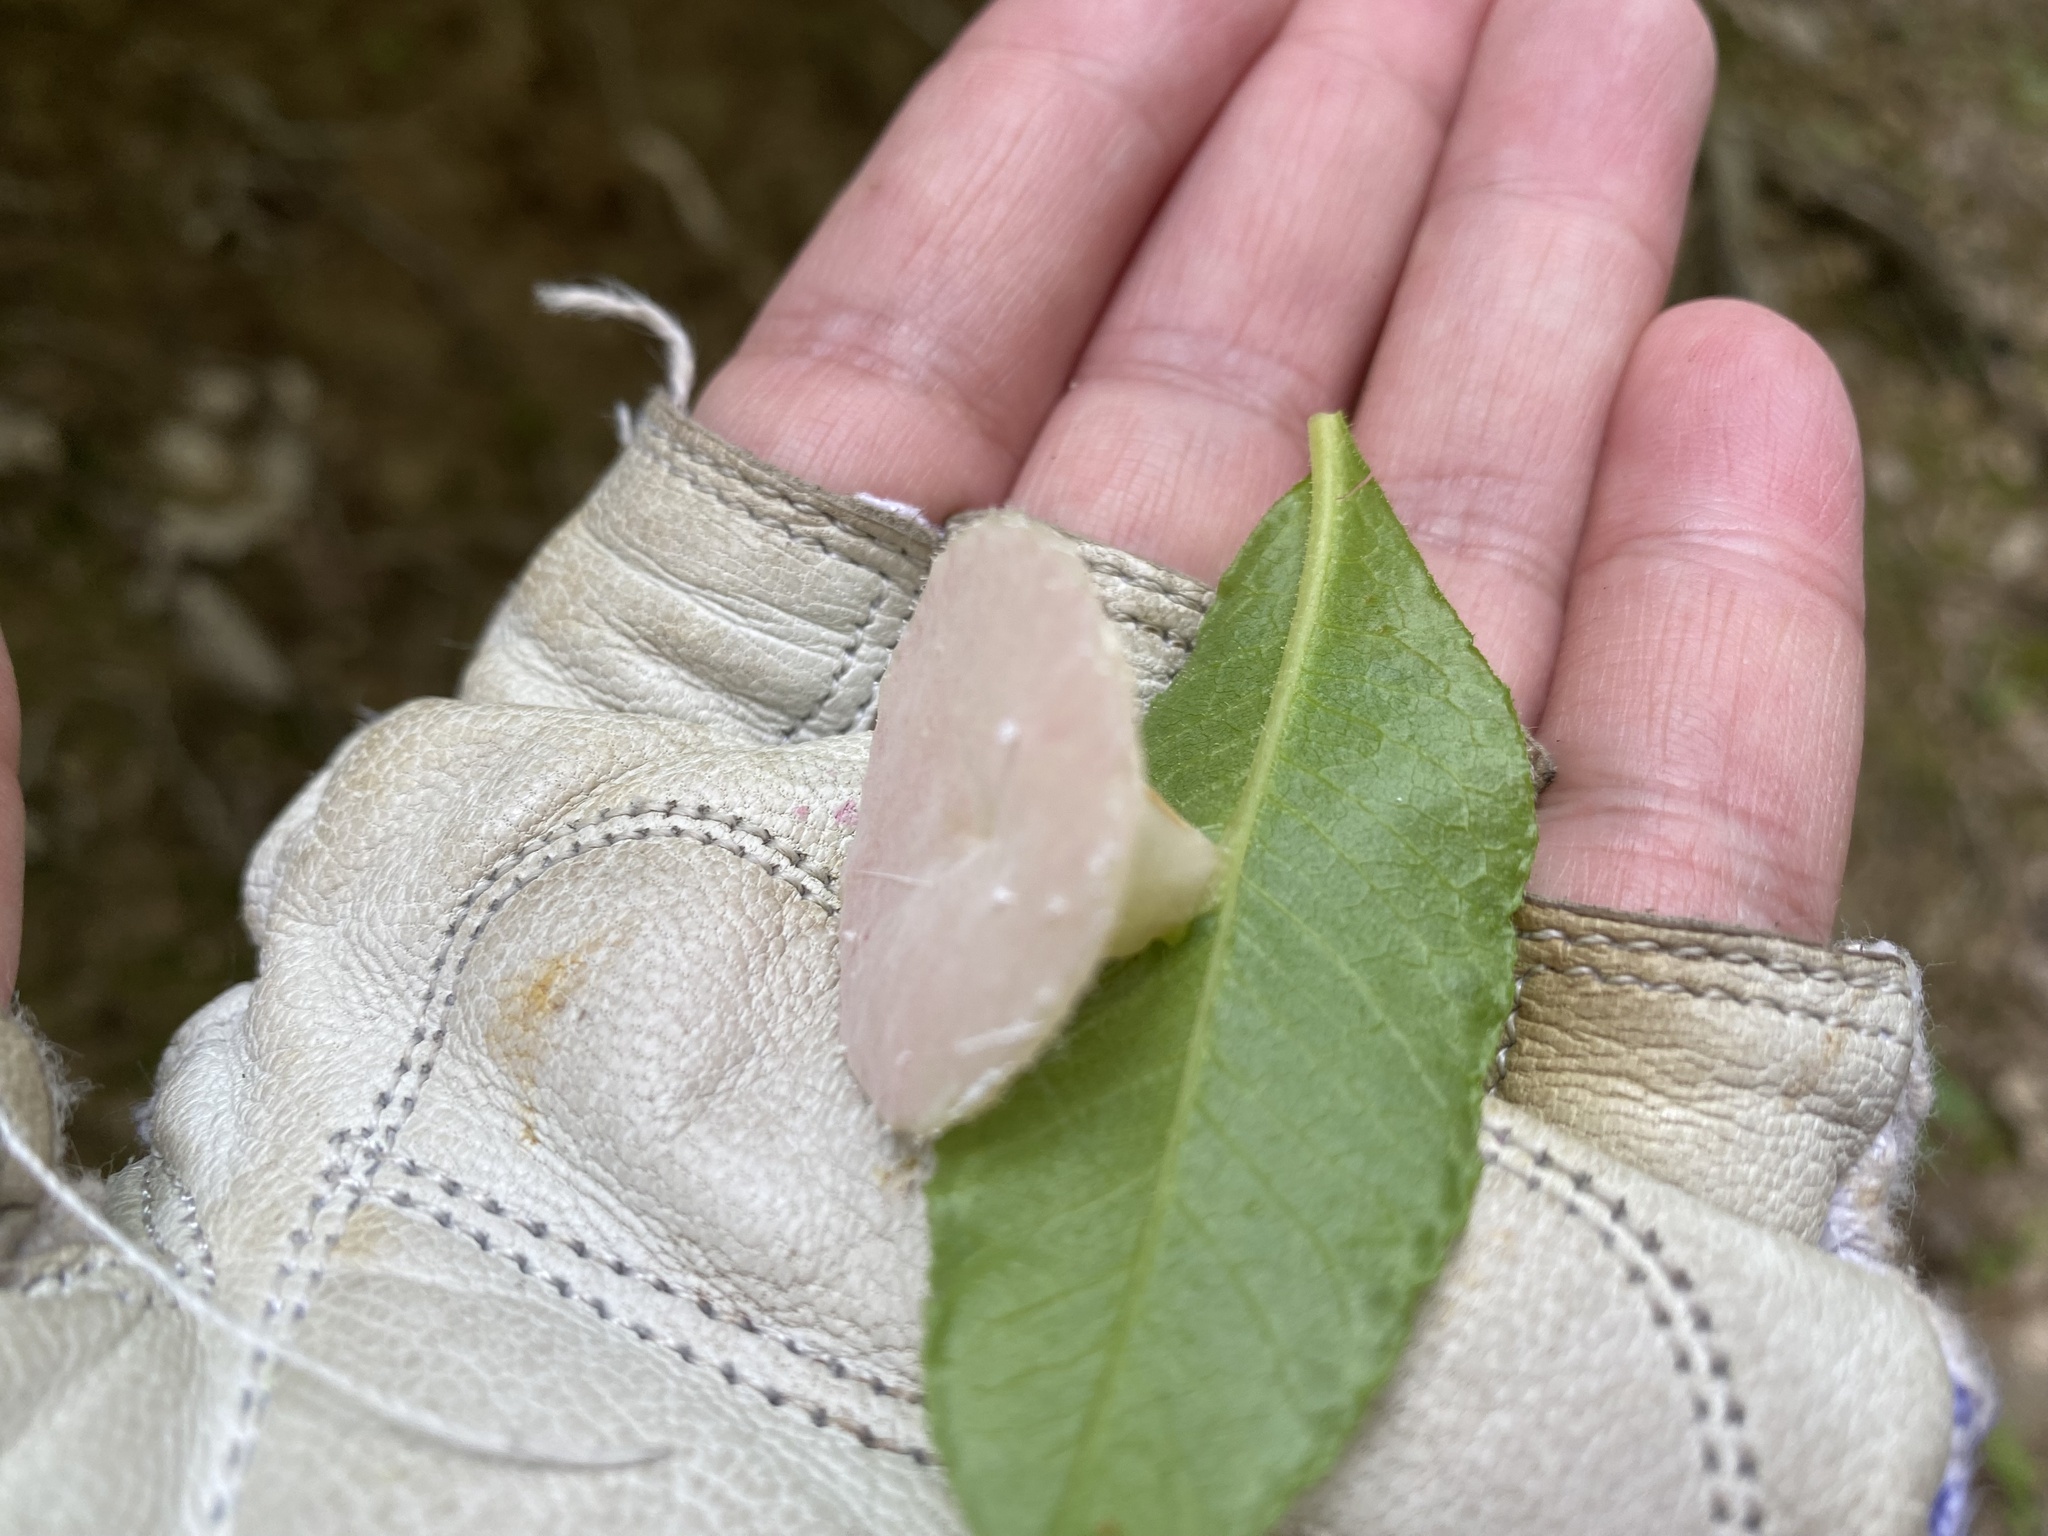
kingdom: Fungi
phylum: Basidiomycota
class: Exobasidiomycetes
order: Exobasidiales
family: Exobasidiaceae
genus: Exobasidium
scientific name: Exobasidium
